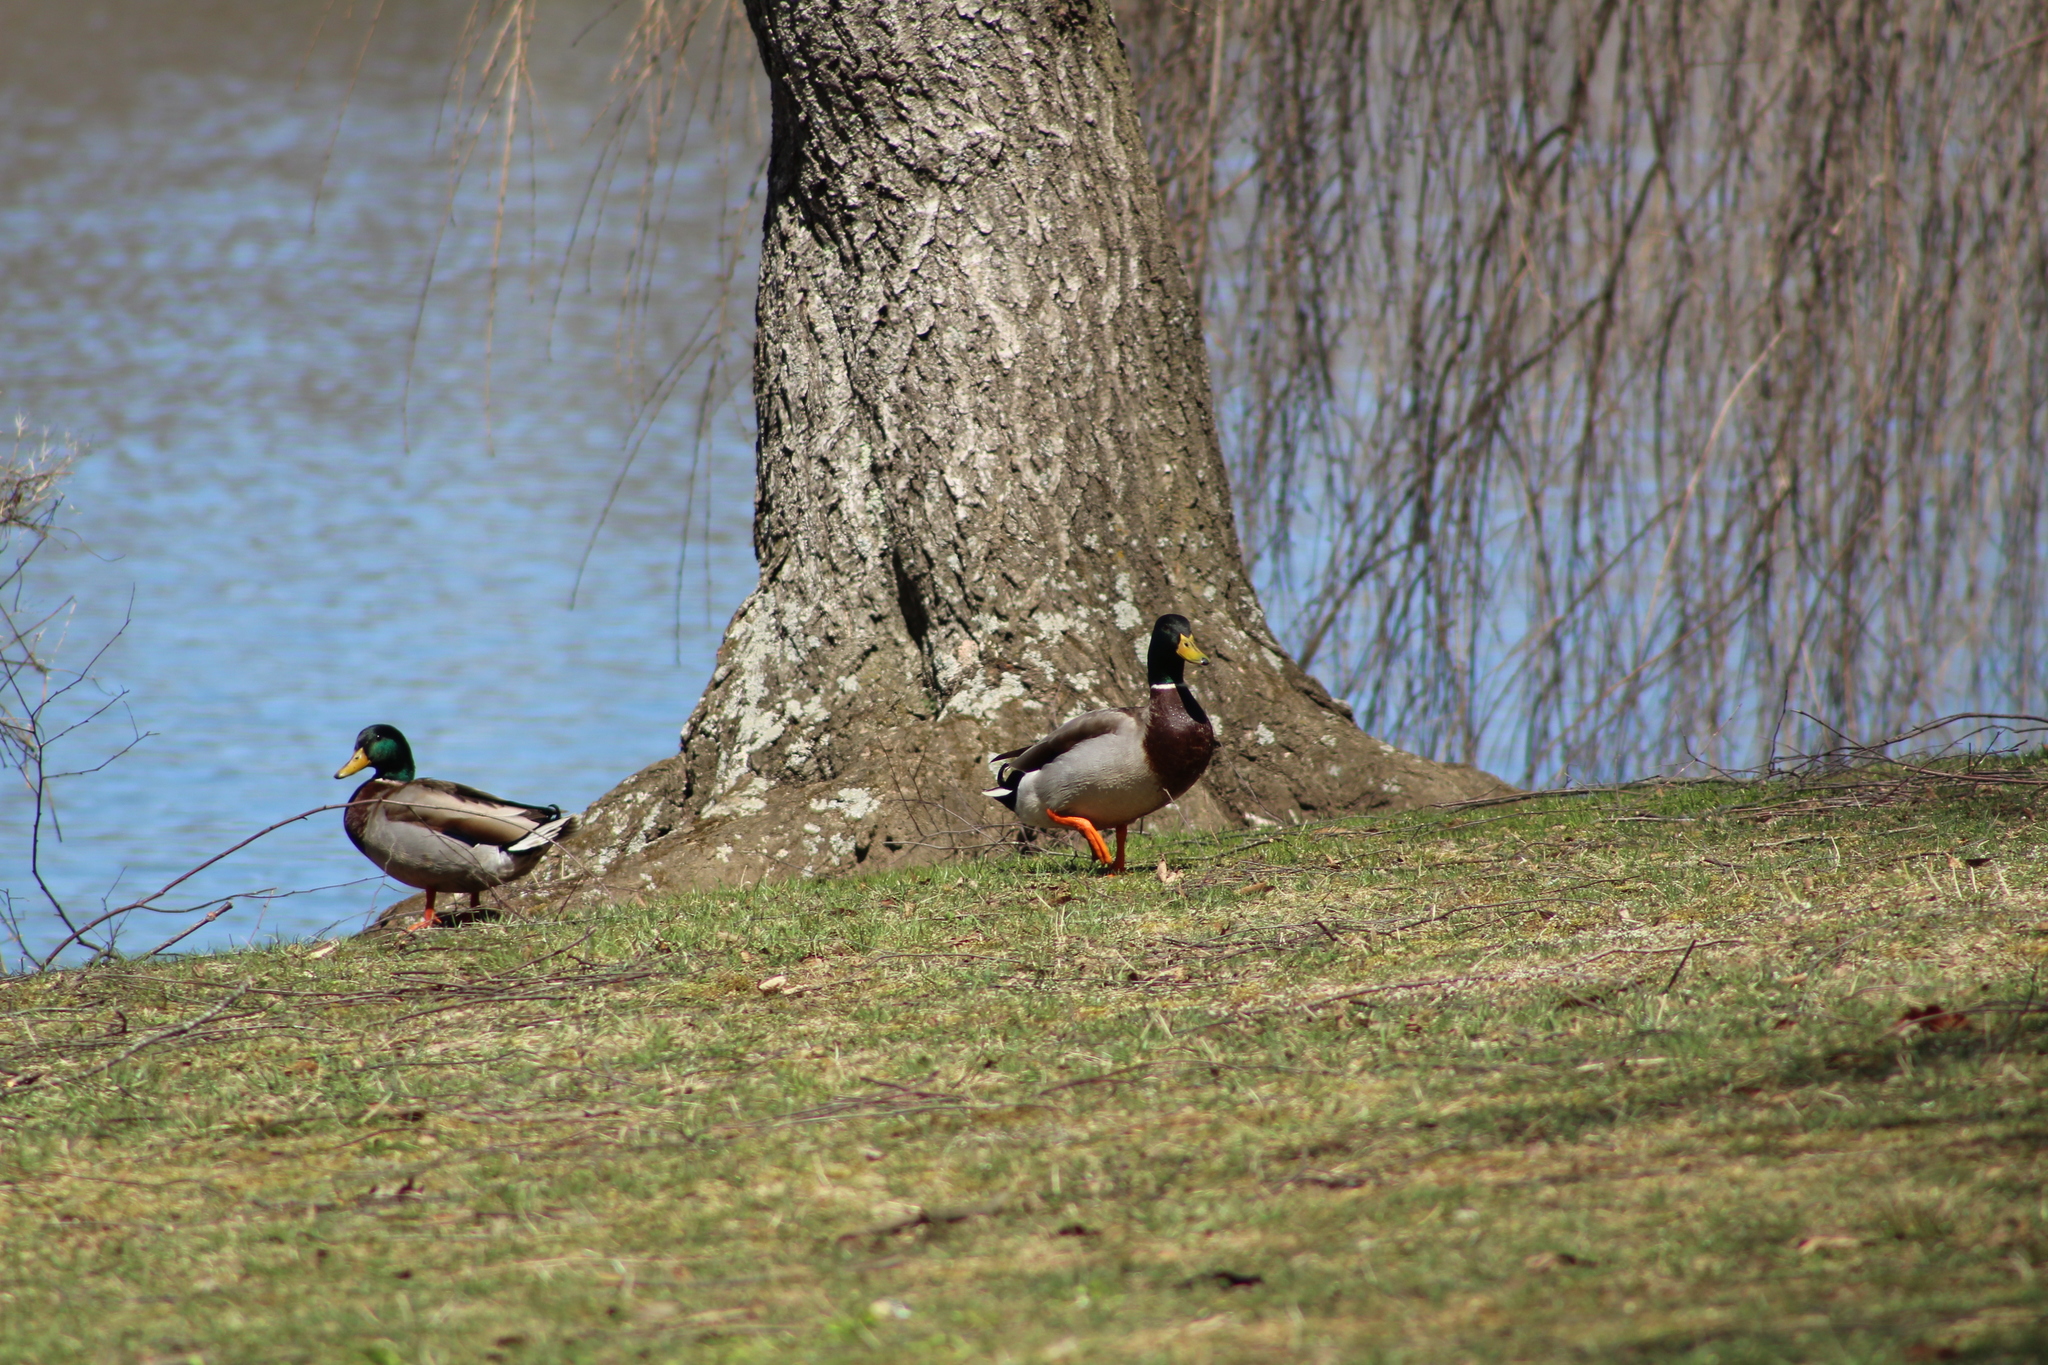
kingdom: Animalia
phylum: Chordata
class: Aves
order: Anseriformes
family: Anatidae
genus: Anas
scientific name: Anas platyrhynchos
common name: Mallard
